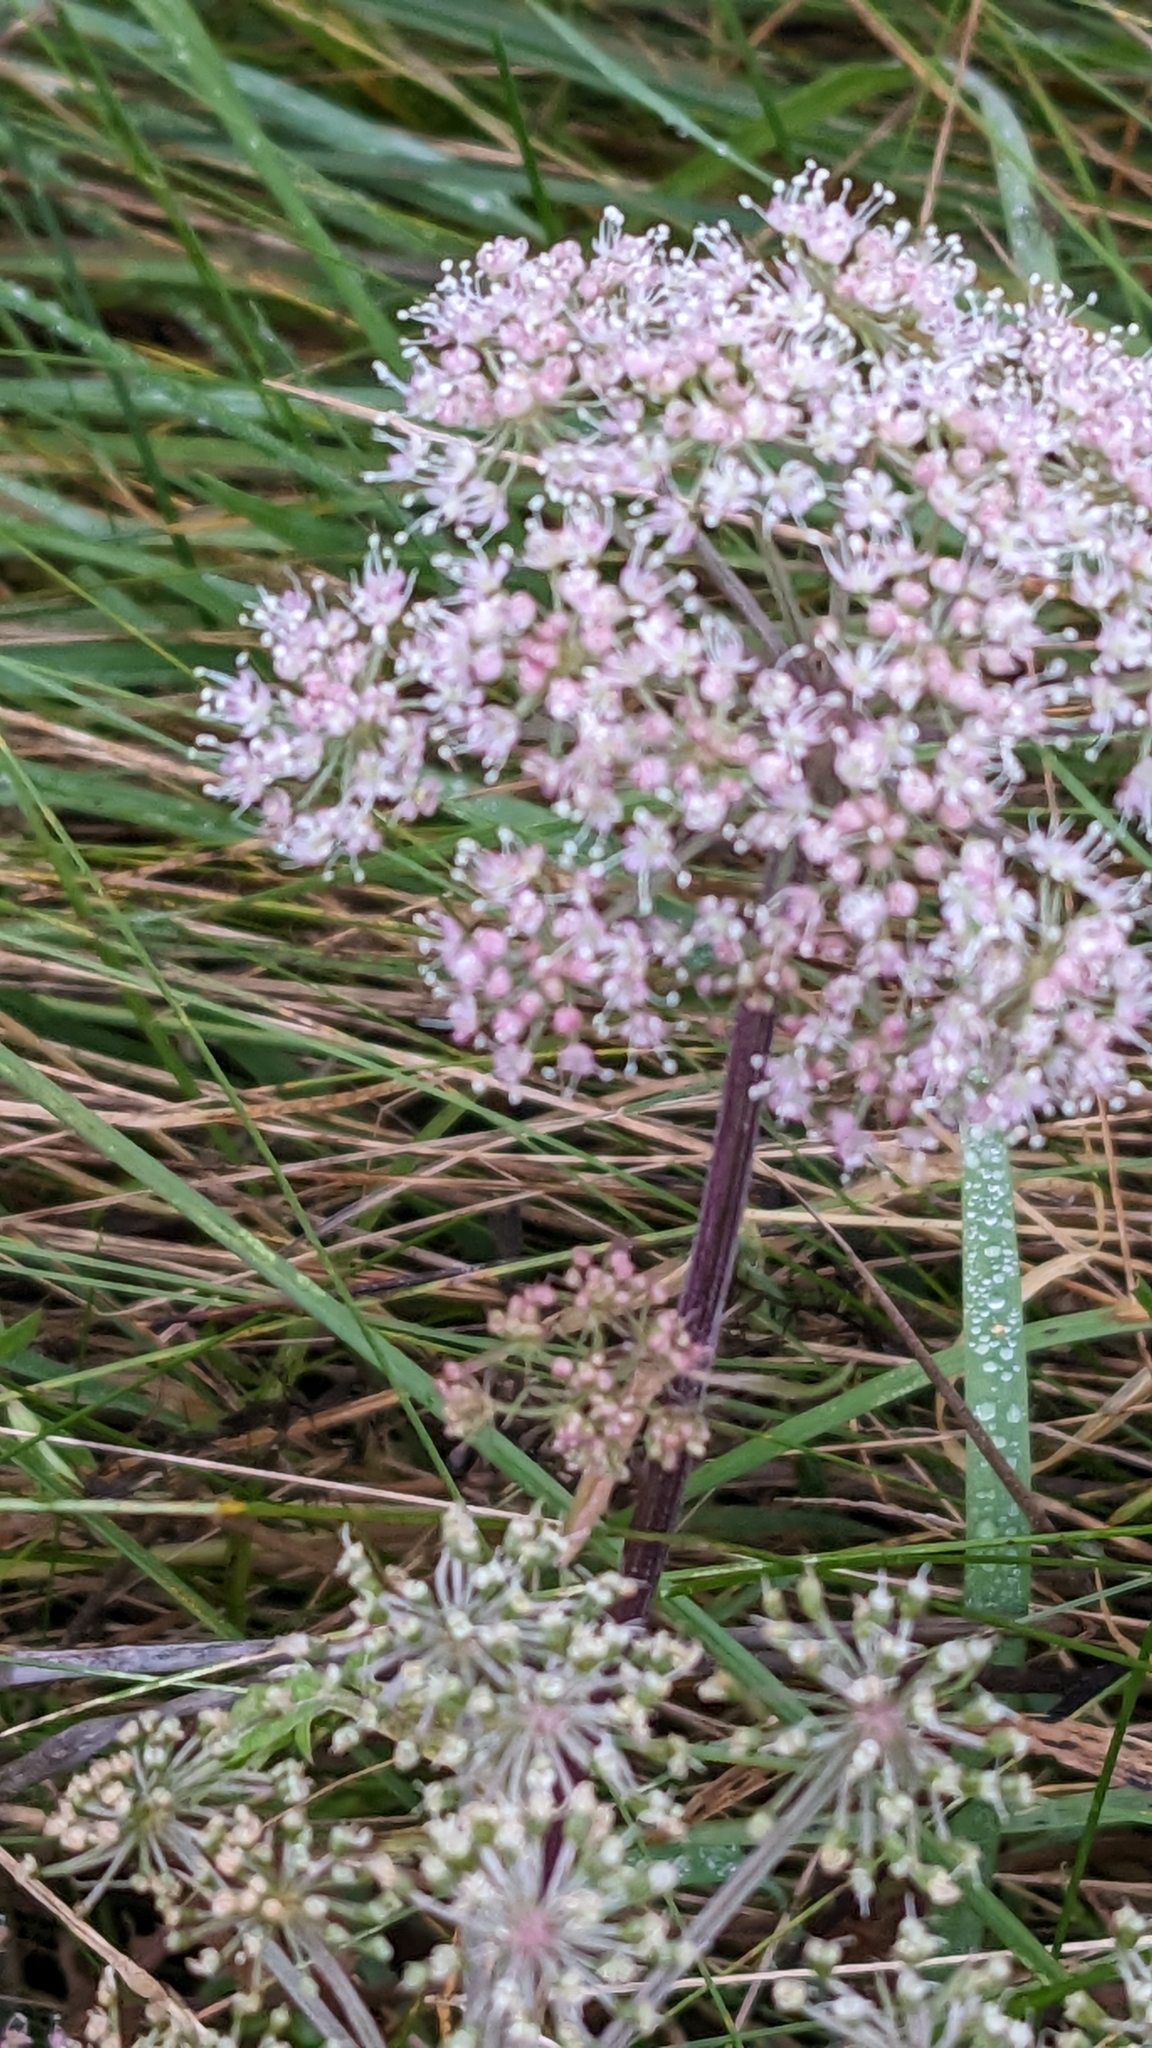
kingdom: Plantae
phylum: Tracheophyta
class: Magnoliopsida
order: Apiales
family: Apiaceae
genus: Angelica
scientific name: Angelica sylvestris
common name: Wild angelica
